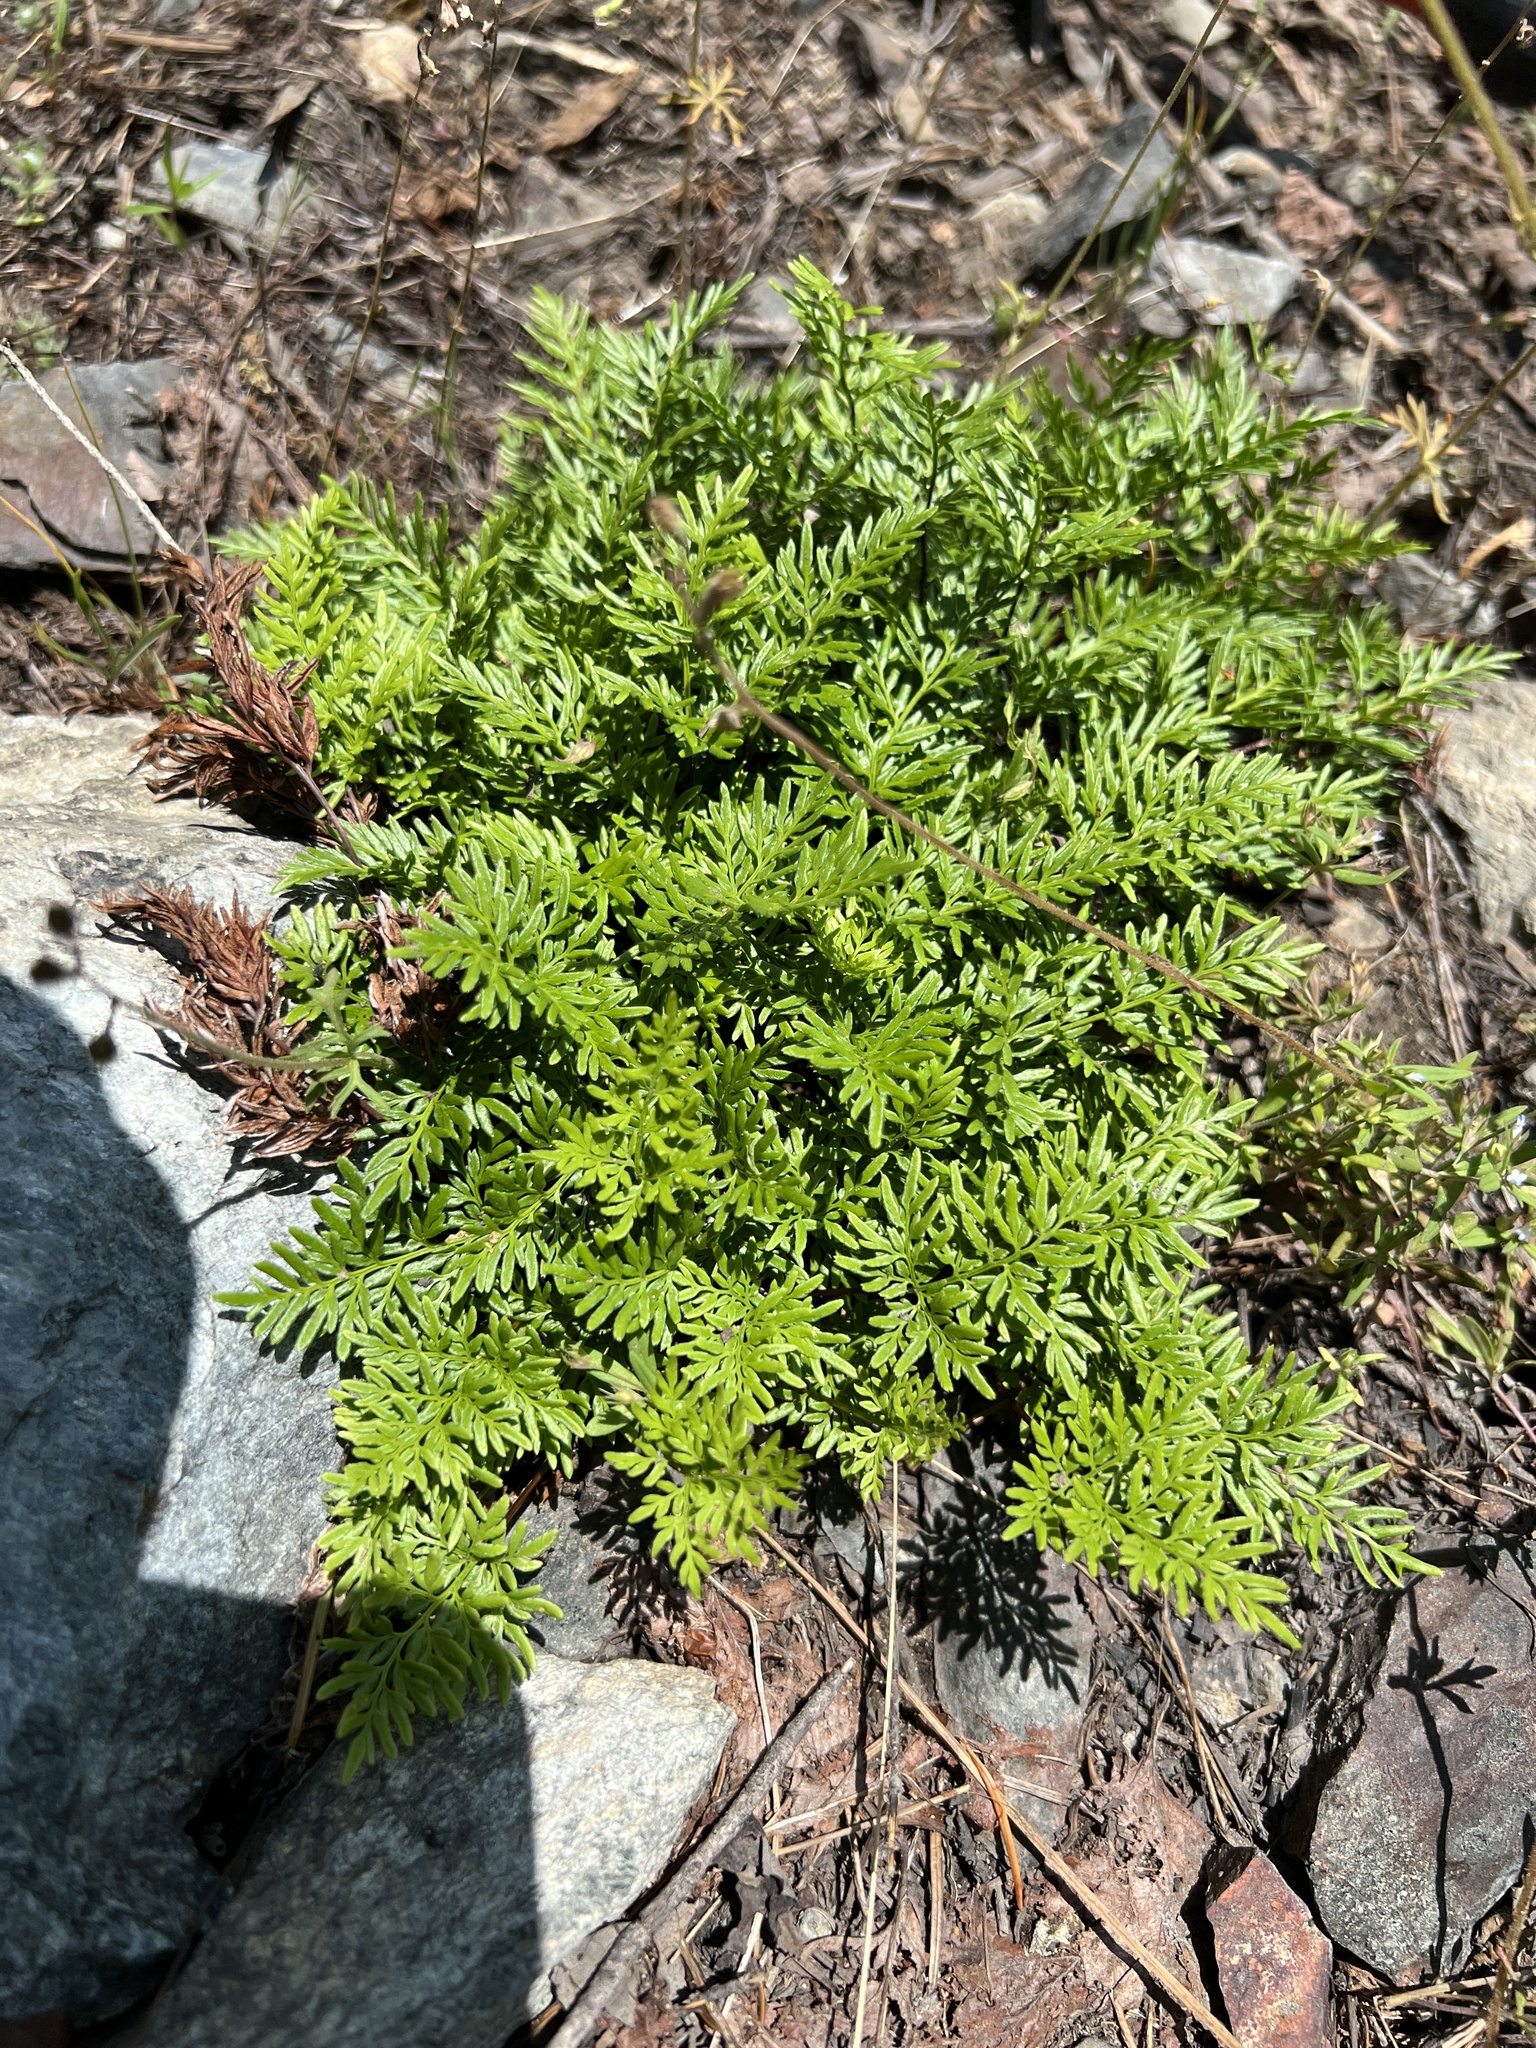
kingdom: Plantae
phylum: Tracheophyta
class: Polypodiopsida
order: Polypodiales
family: Pteridaceae
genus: Aspidotis
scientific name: Aspidotis densa
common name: Indian's dream
